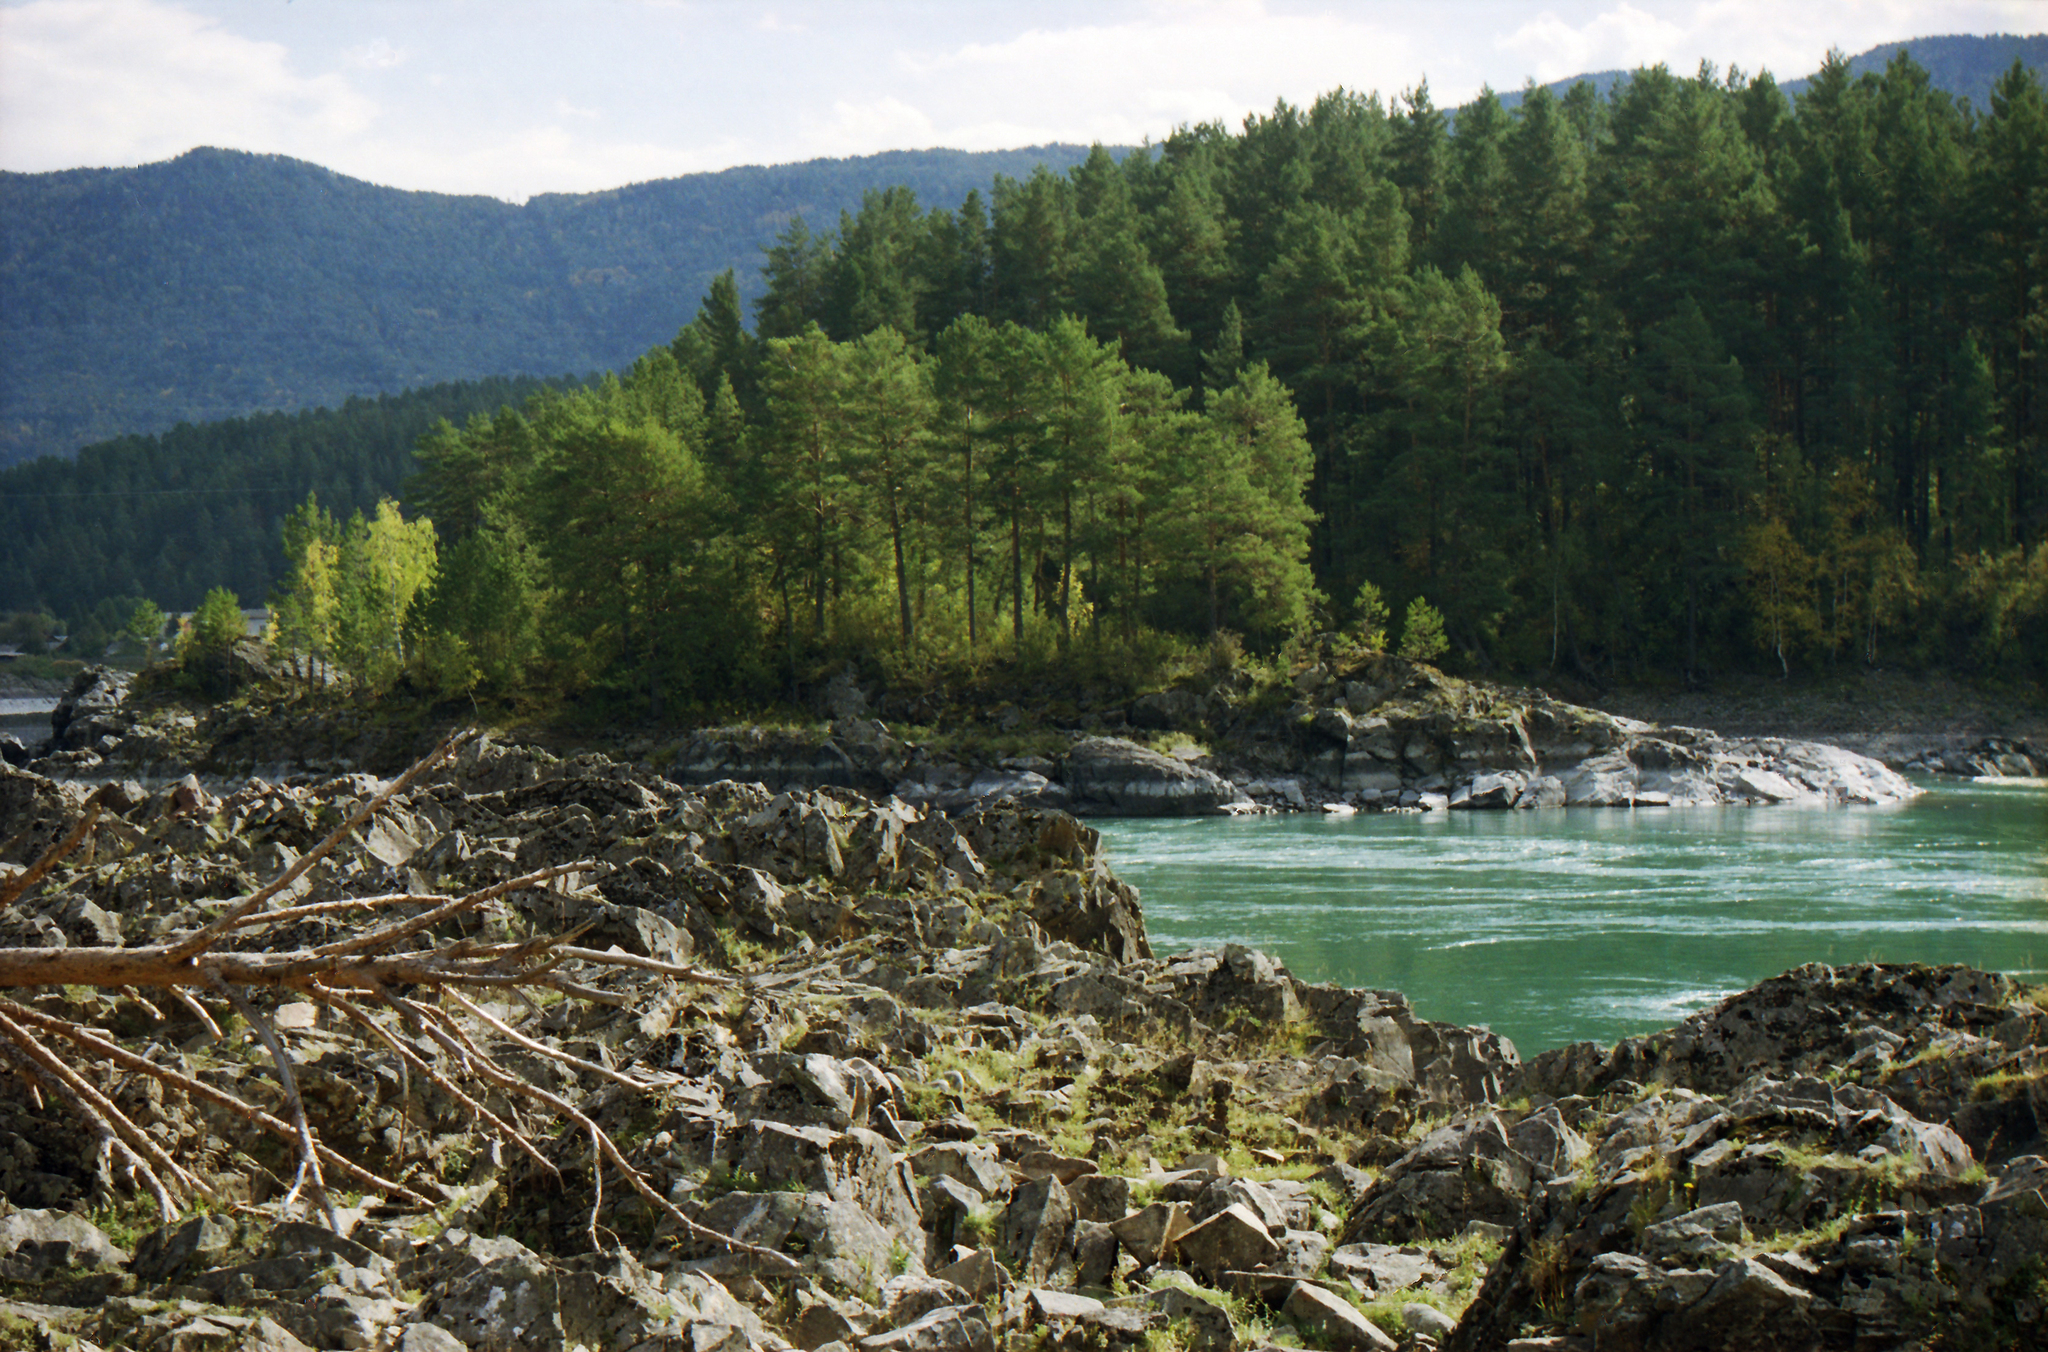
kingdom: Plantae
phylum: Tracheophyta
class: Pinopsida
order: Pinales
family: Pinaceae
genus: Pinus
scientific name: Pinus sylvestris
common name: Scots pine
